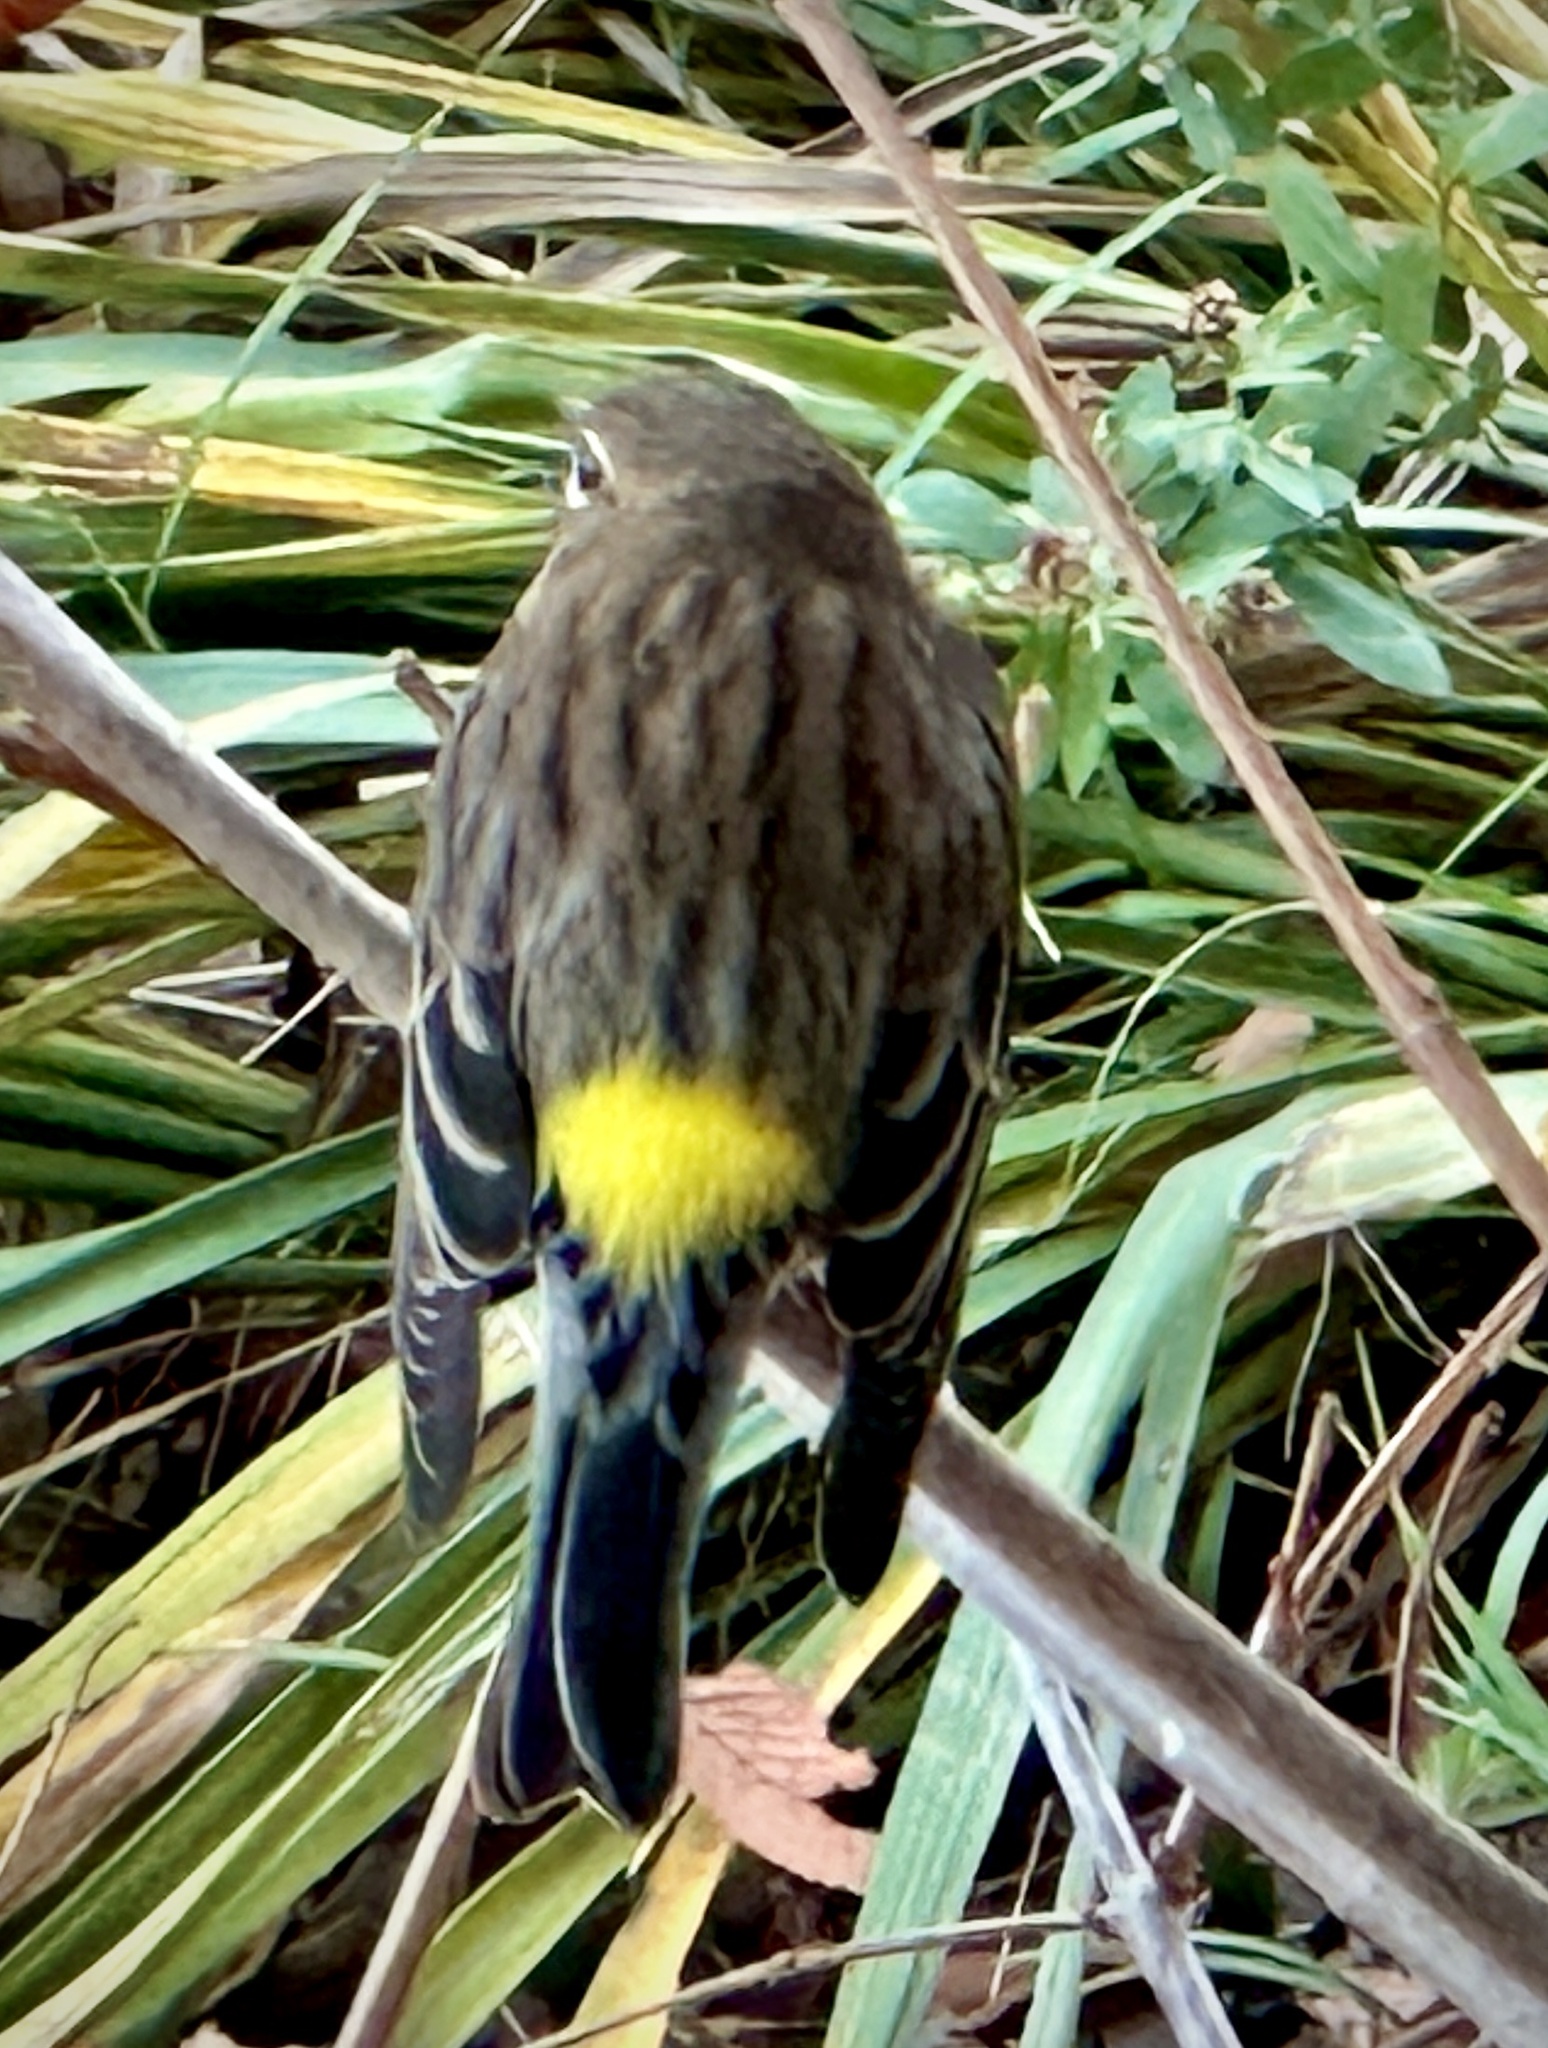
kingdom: Animalia
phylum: Chordata
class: Aves
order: Passeriformes
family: Parulidae
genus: Setophaga
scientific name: Setophaga coronata
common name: Myrtle warbler
